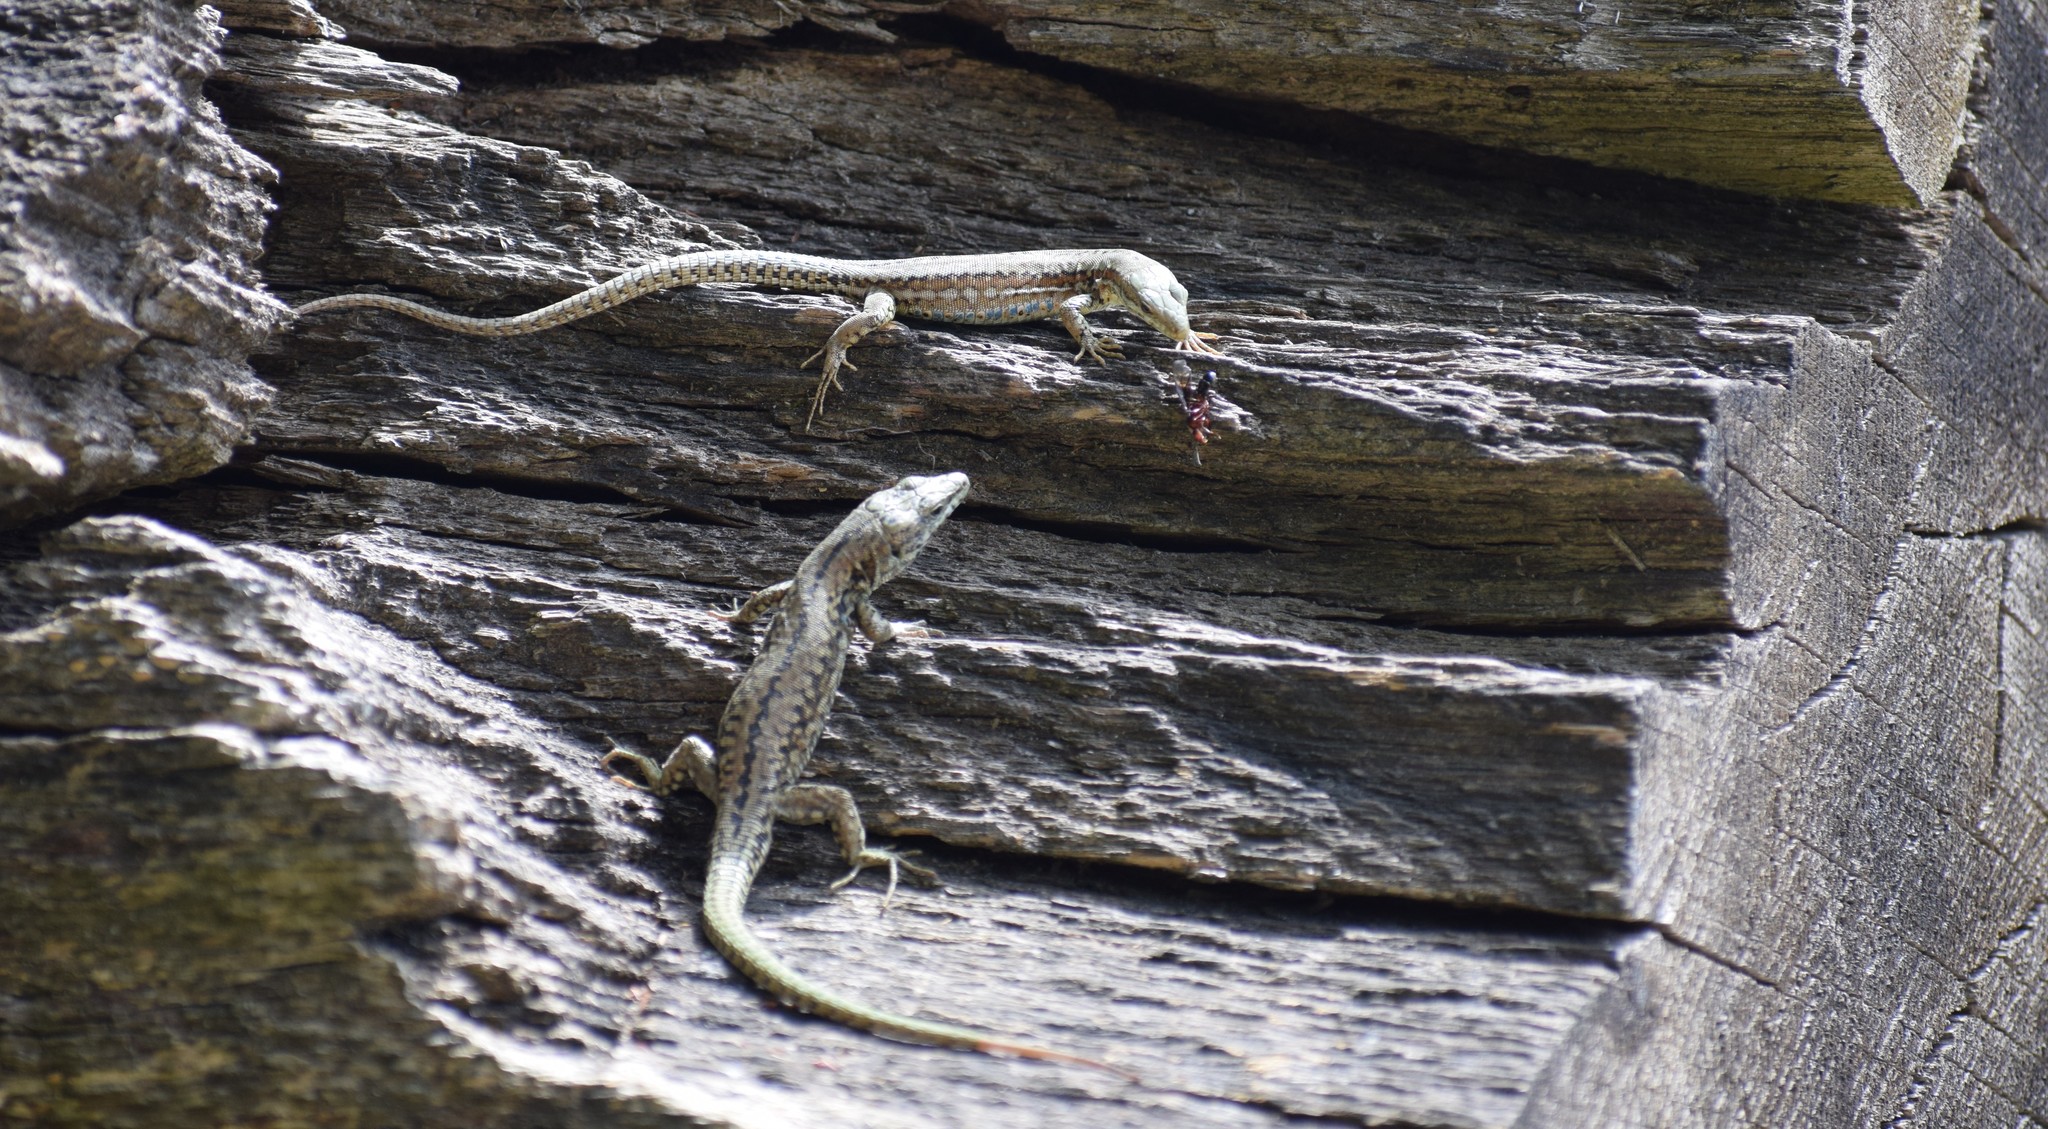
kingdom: Animalia
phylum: Chordata
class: Squamata
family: Lacertidae
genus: Podarcis
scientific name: Podarcis muralis
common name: Common wall lizard
